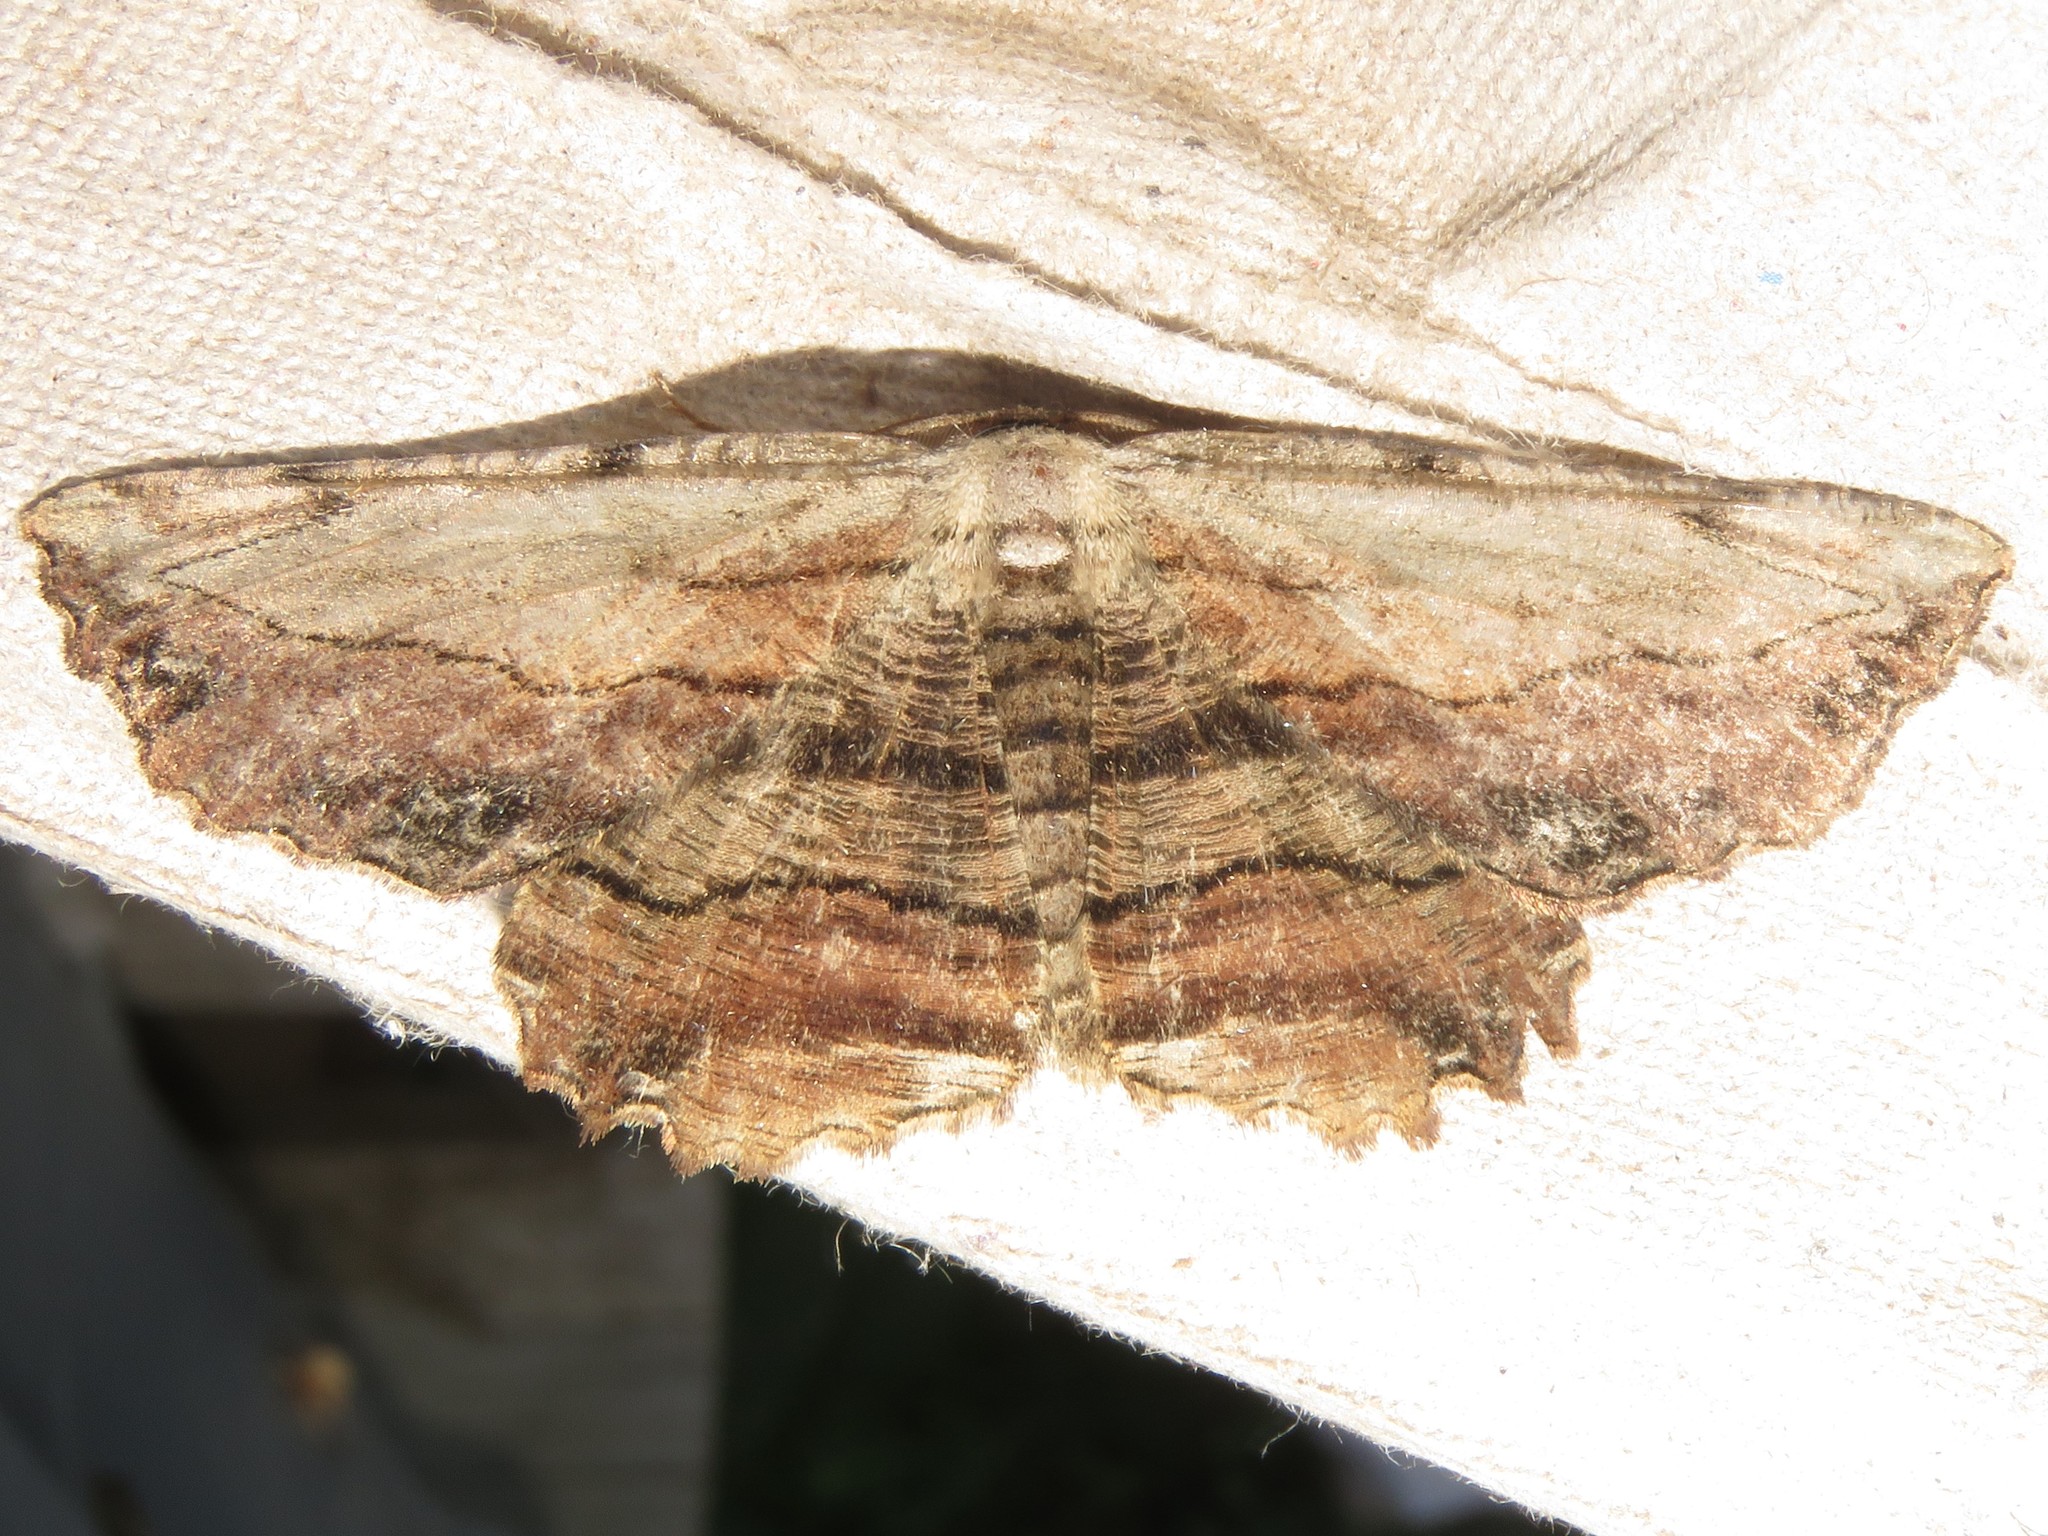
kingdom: Animalia
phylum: Arthropoda
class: Insecta
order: Lepidoptera
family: Geometridae
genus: Lytrosis
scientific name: Lytrosis unitaria
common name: Common lytrosis
